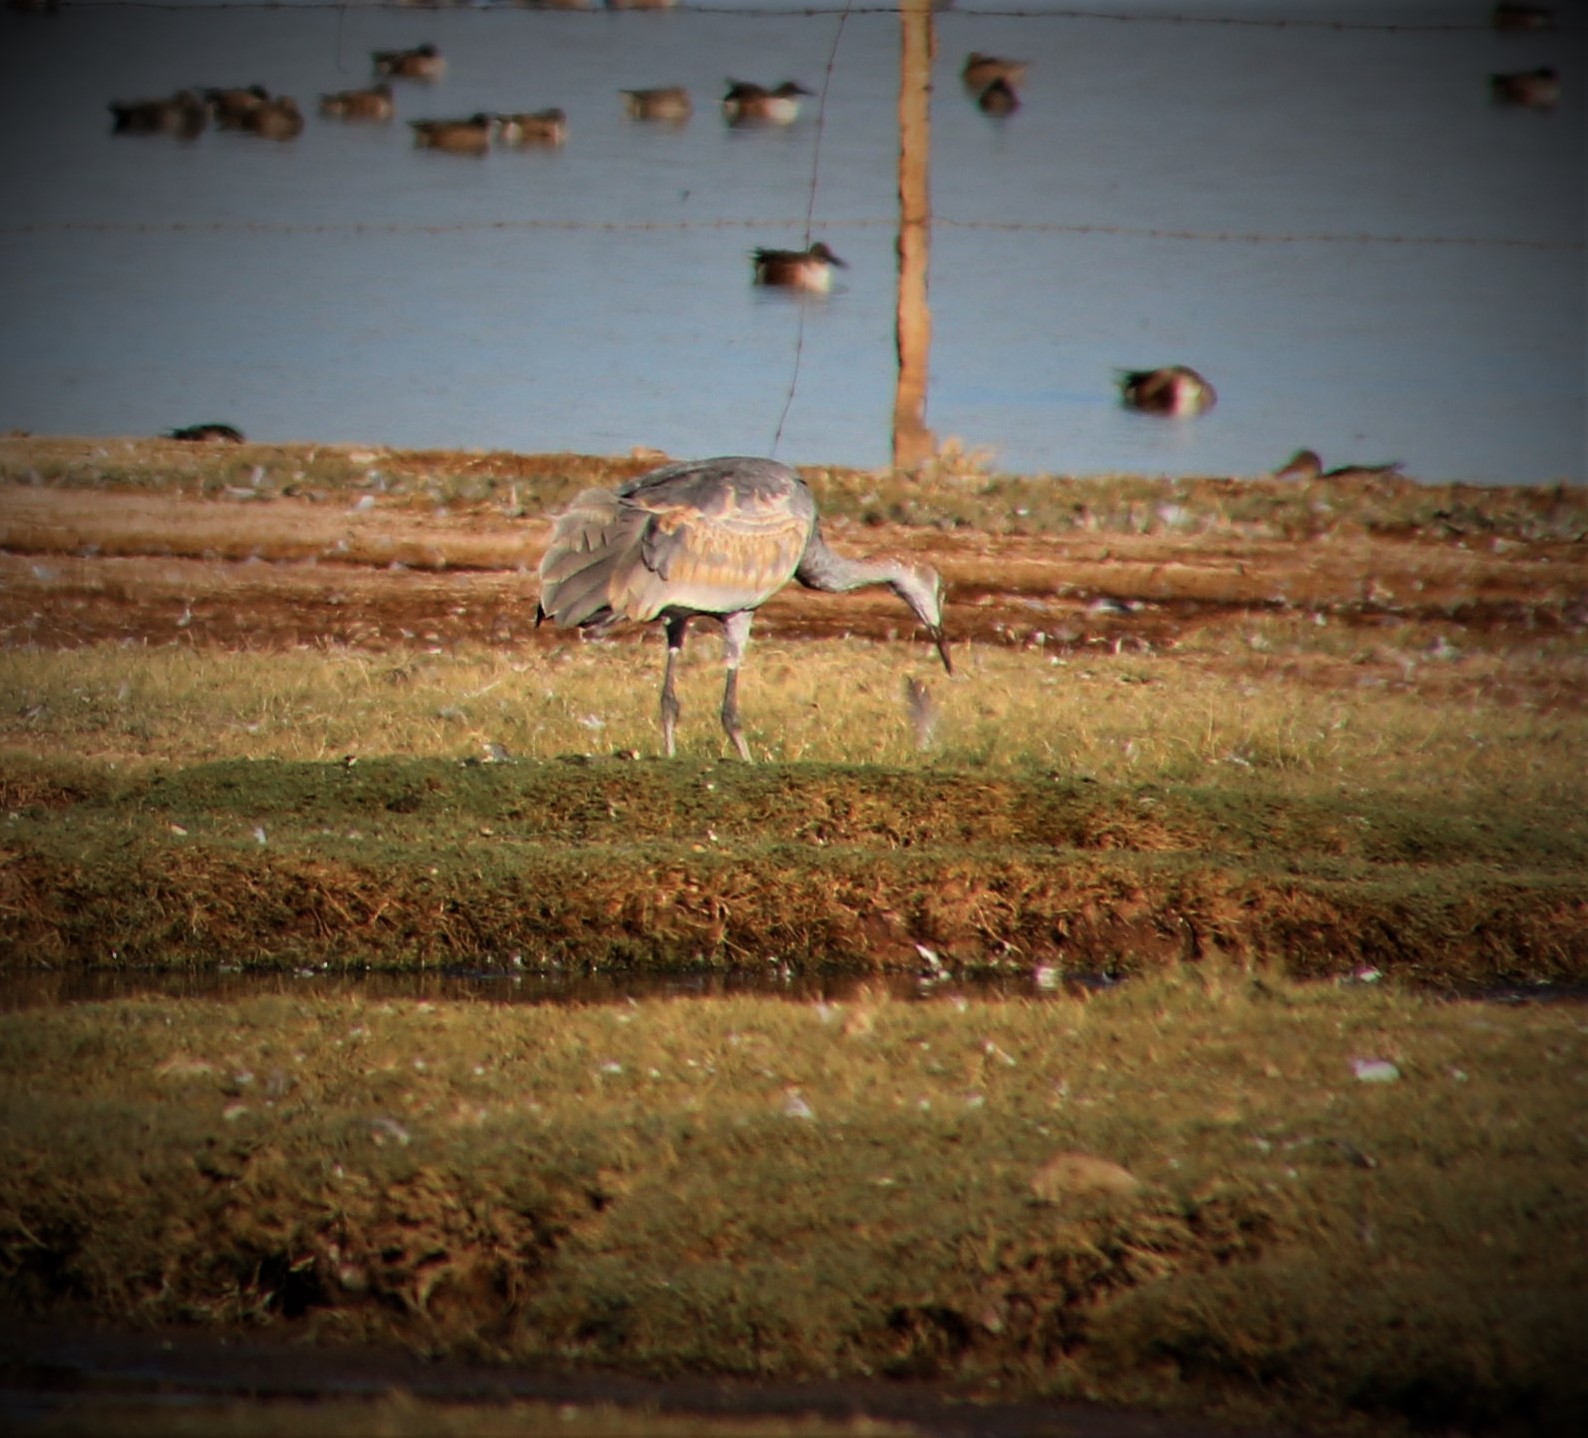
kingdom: Animalia
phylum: Chordata
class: Aves
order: Gruiformes
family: Gruidae
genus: Grus
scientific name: Grus canadensis
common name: Sandhill crane
